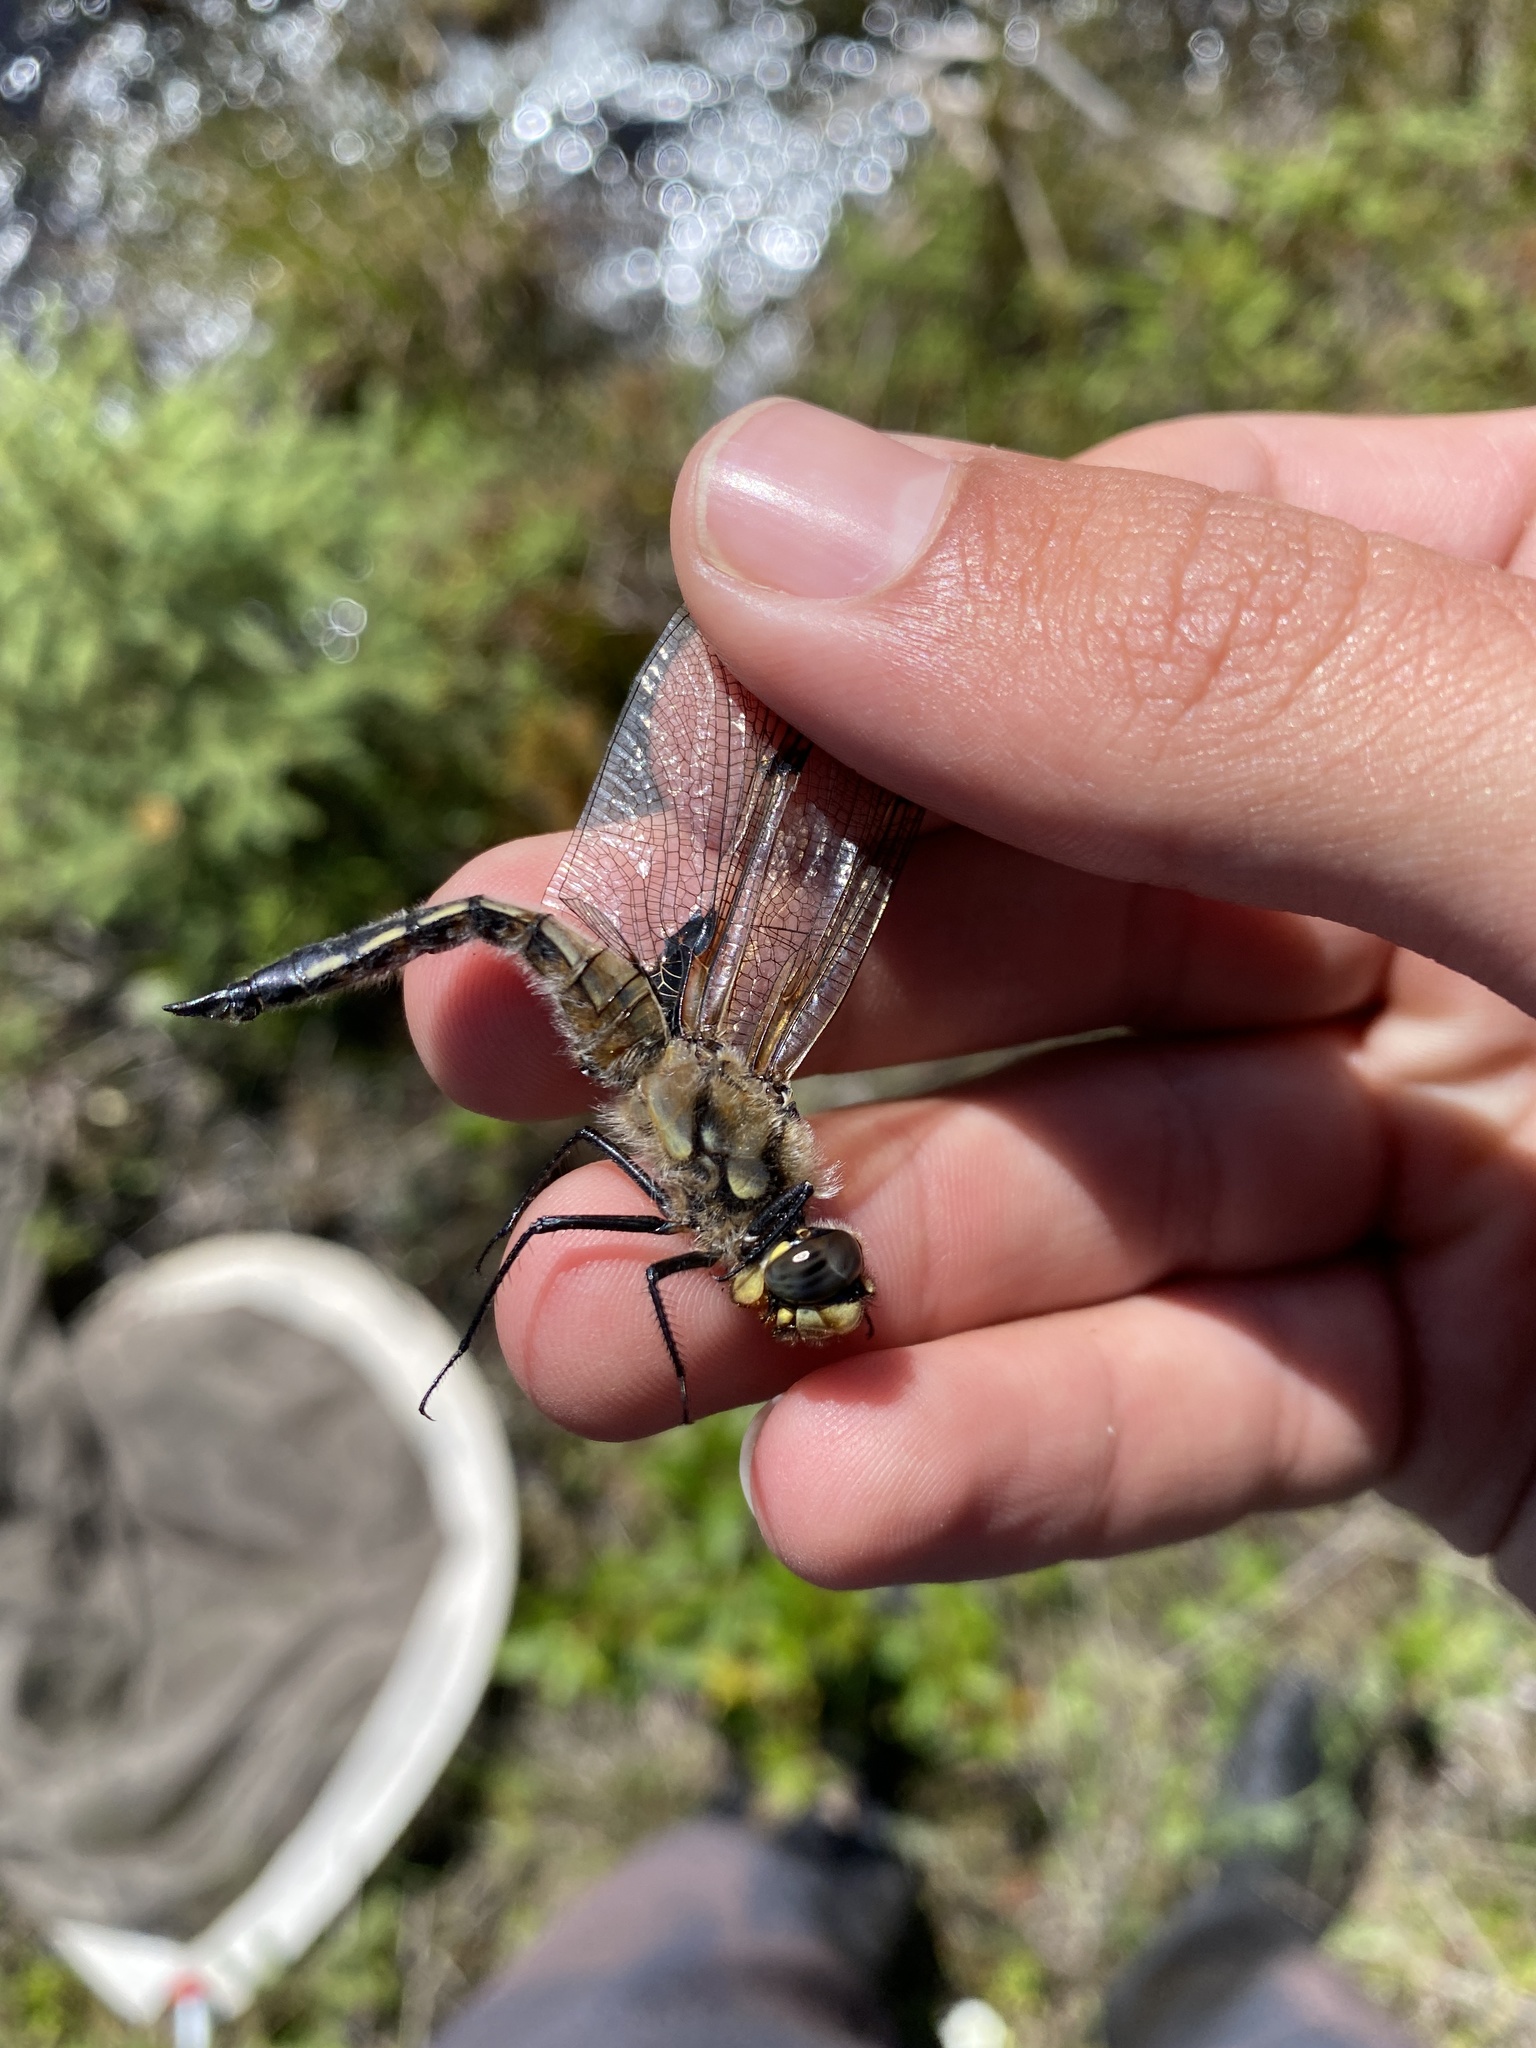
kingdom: Animalia
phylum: Arthropoda
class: Insecta
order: Odonata
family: Libellulidae
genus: Libellula
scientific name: Libellula quadrimaculata
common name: Four-spotted chaser
